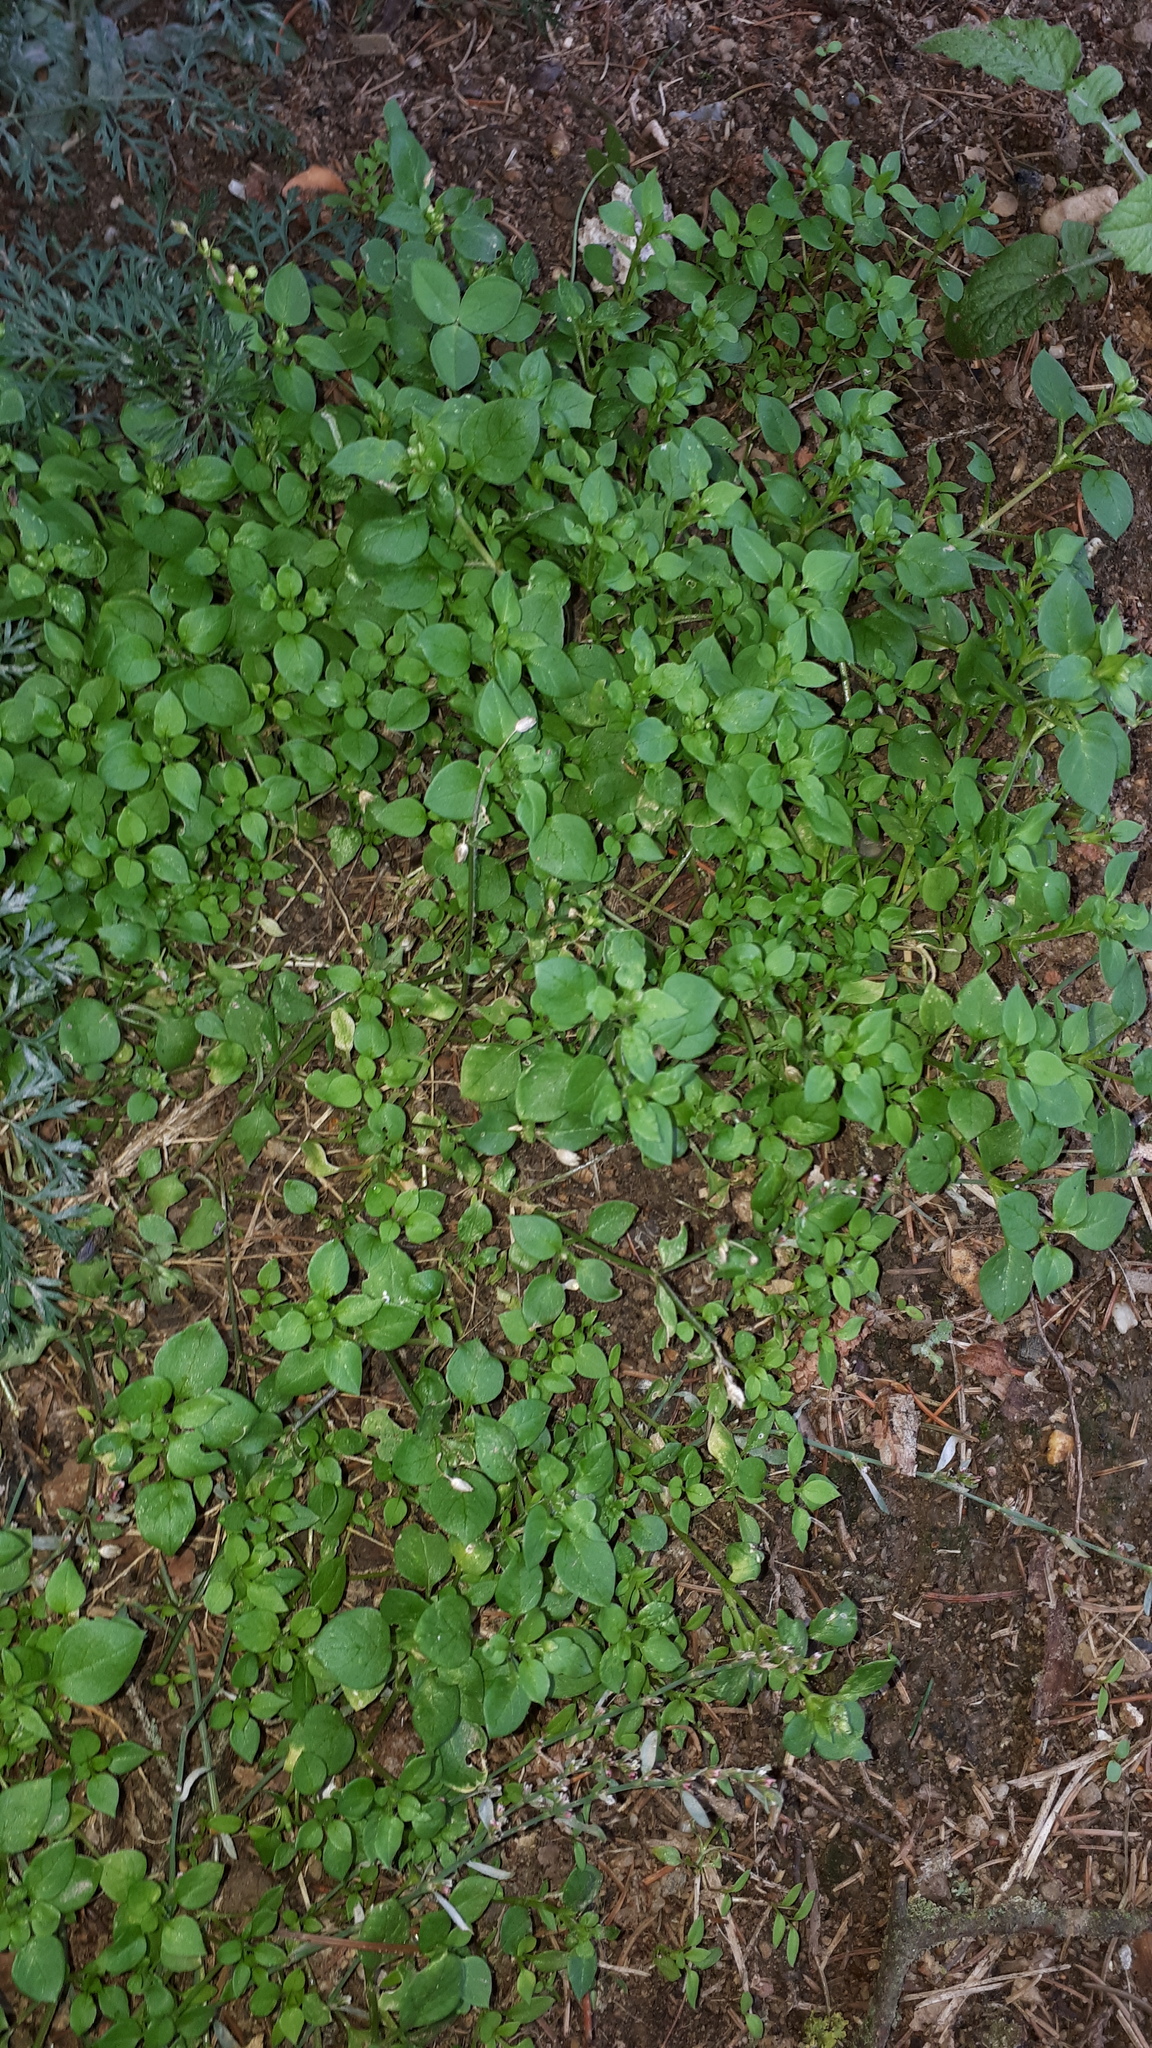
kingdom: Plantae
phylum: Tracheophyta
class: Magnoliopsida
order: Caryophyllales
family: Caryophyllaceae
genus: Stellaria
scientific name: Stellaria media
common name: Common chickweed
